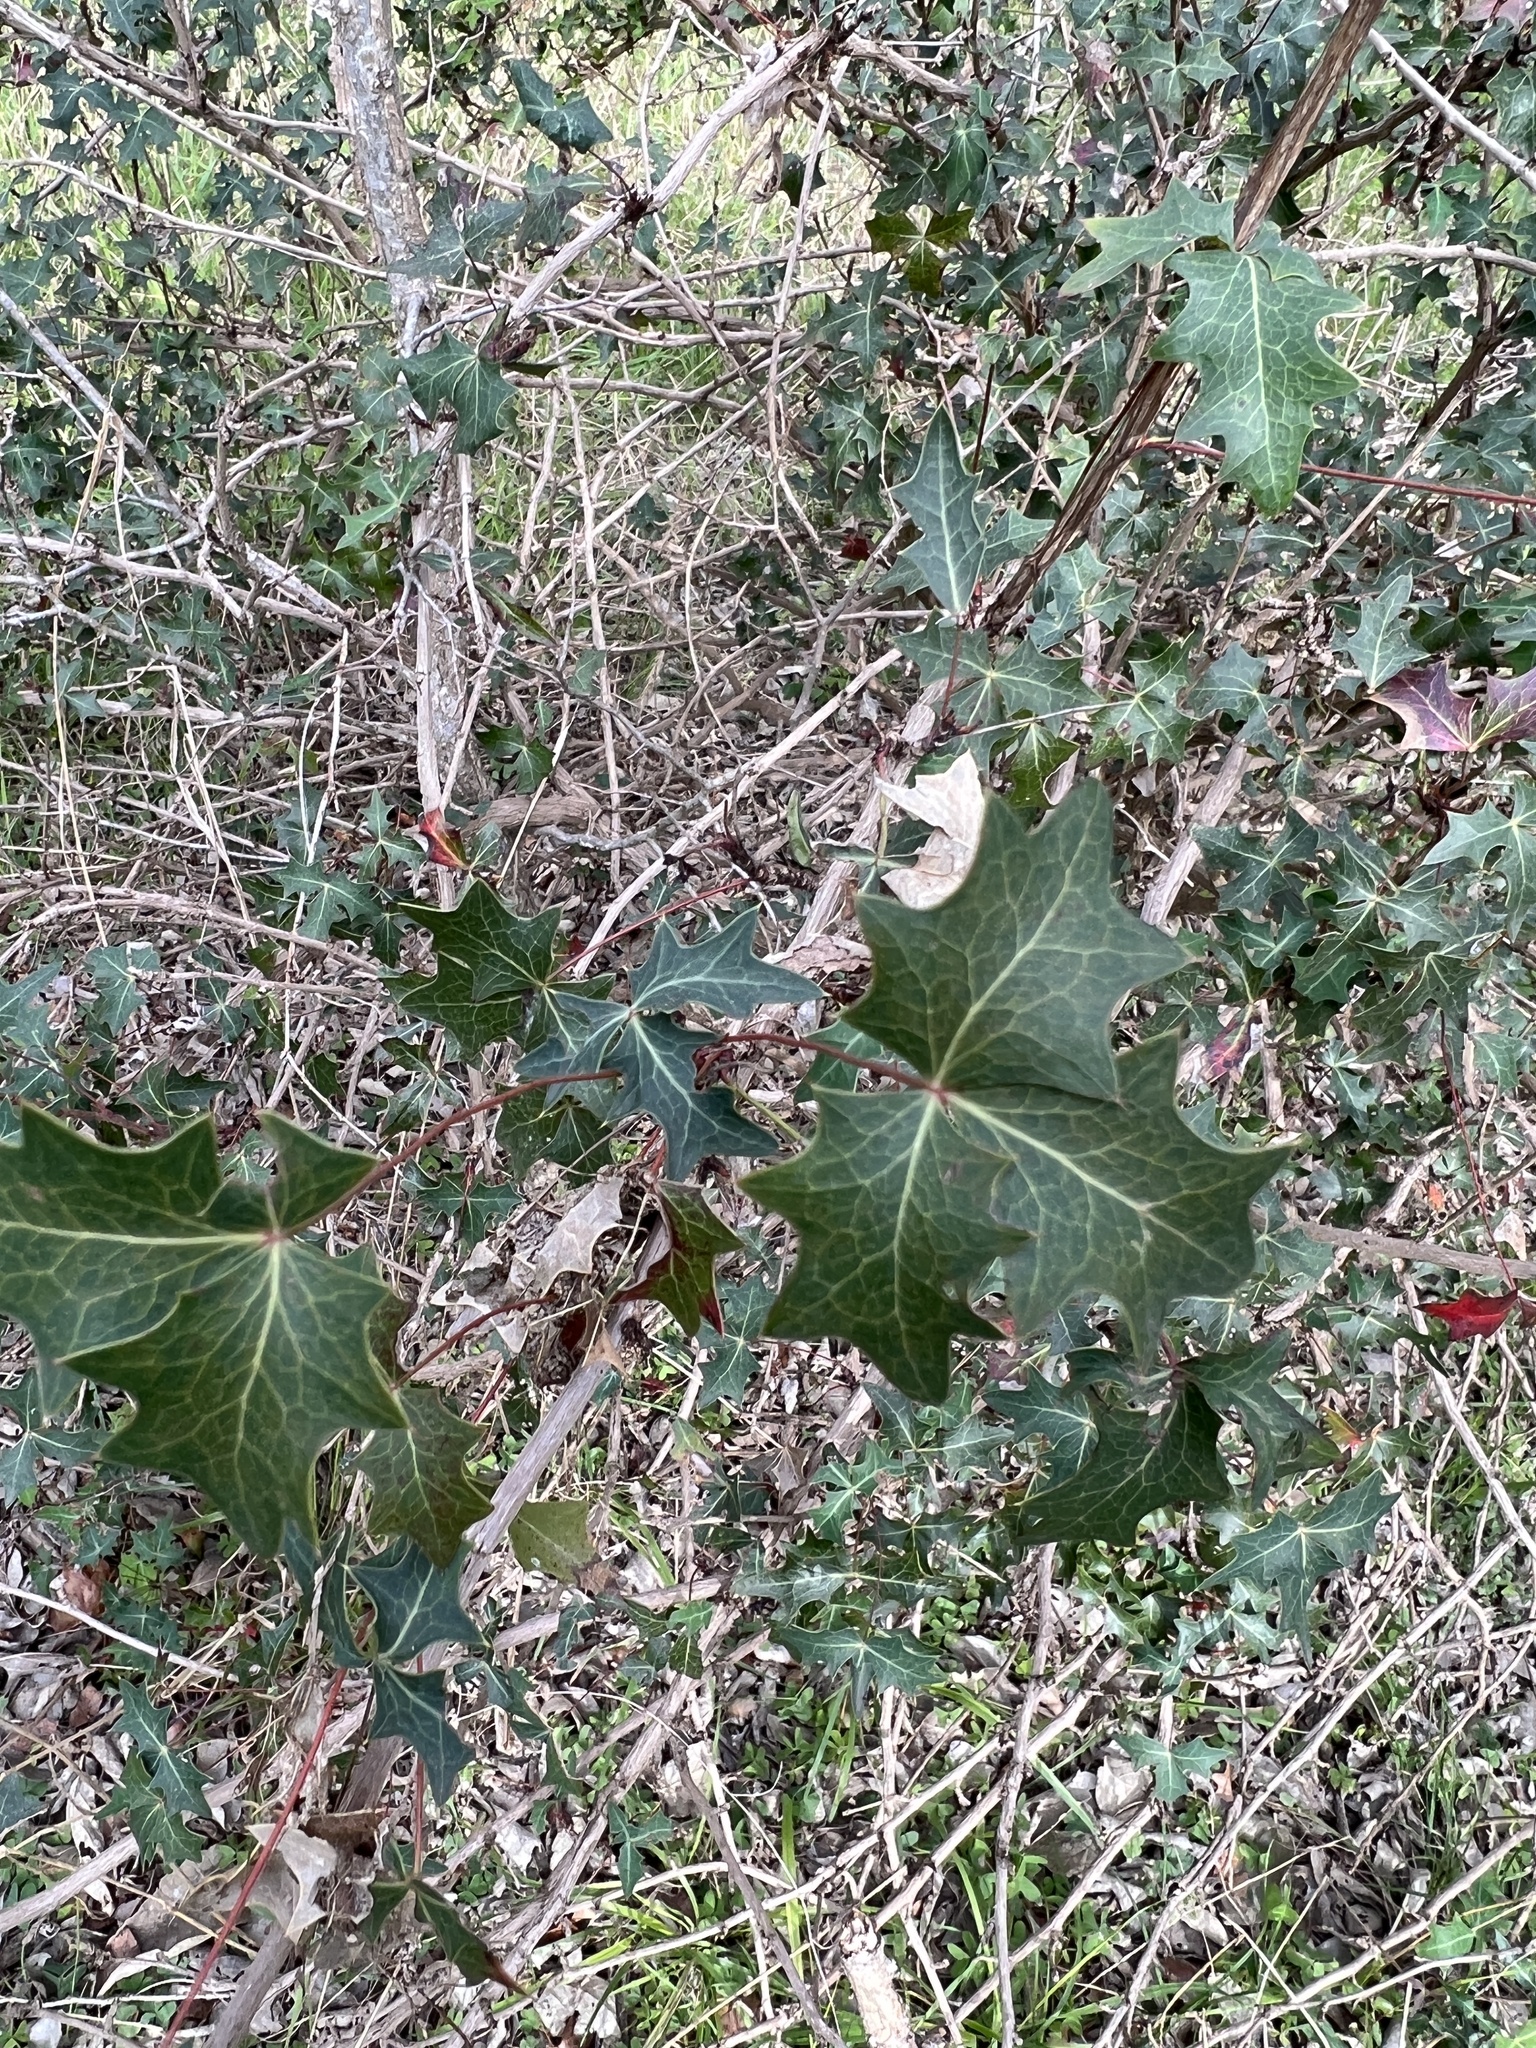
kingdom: Plantae
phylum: Tracheophyta
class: Magnoliopsida
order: Ranunculales
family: Berberidaceae
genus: Alloberberis
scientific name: Alloberberis trifoliolata
